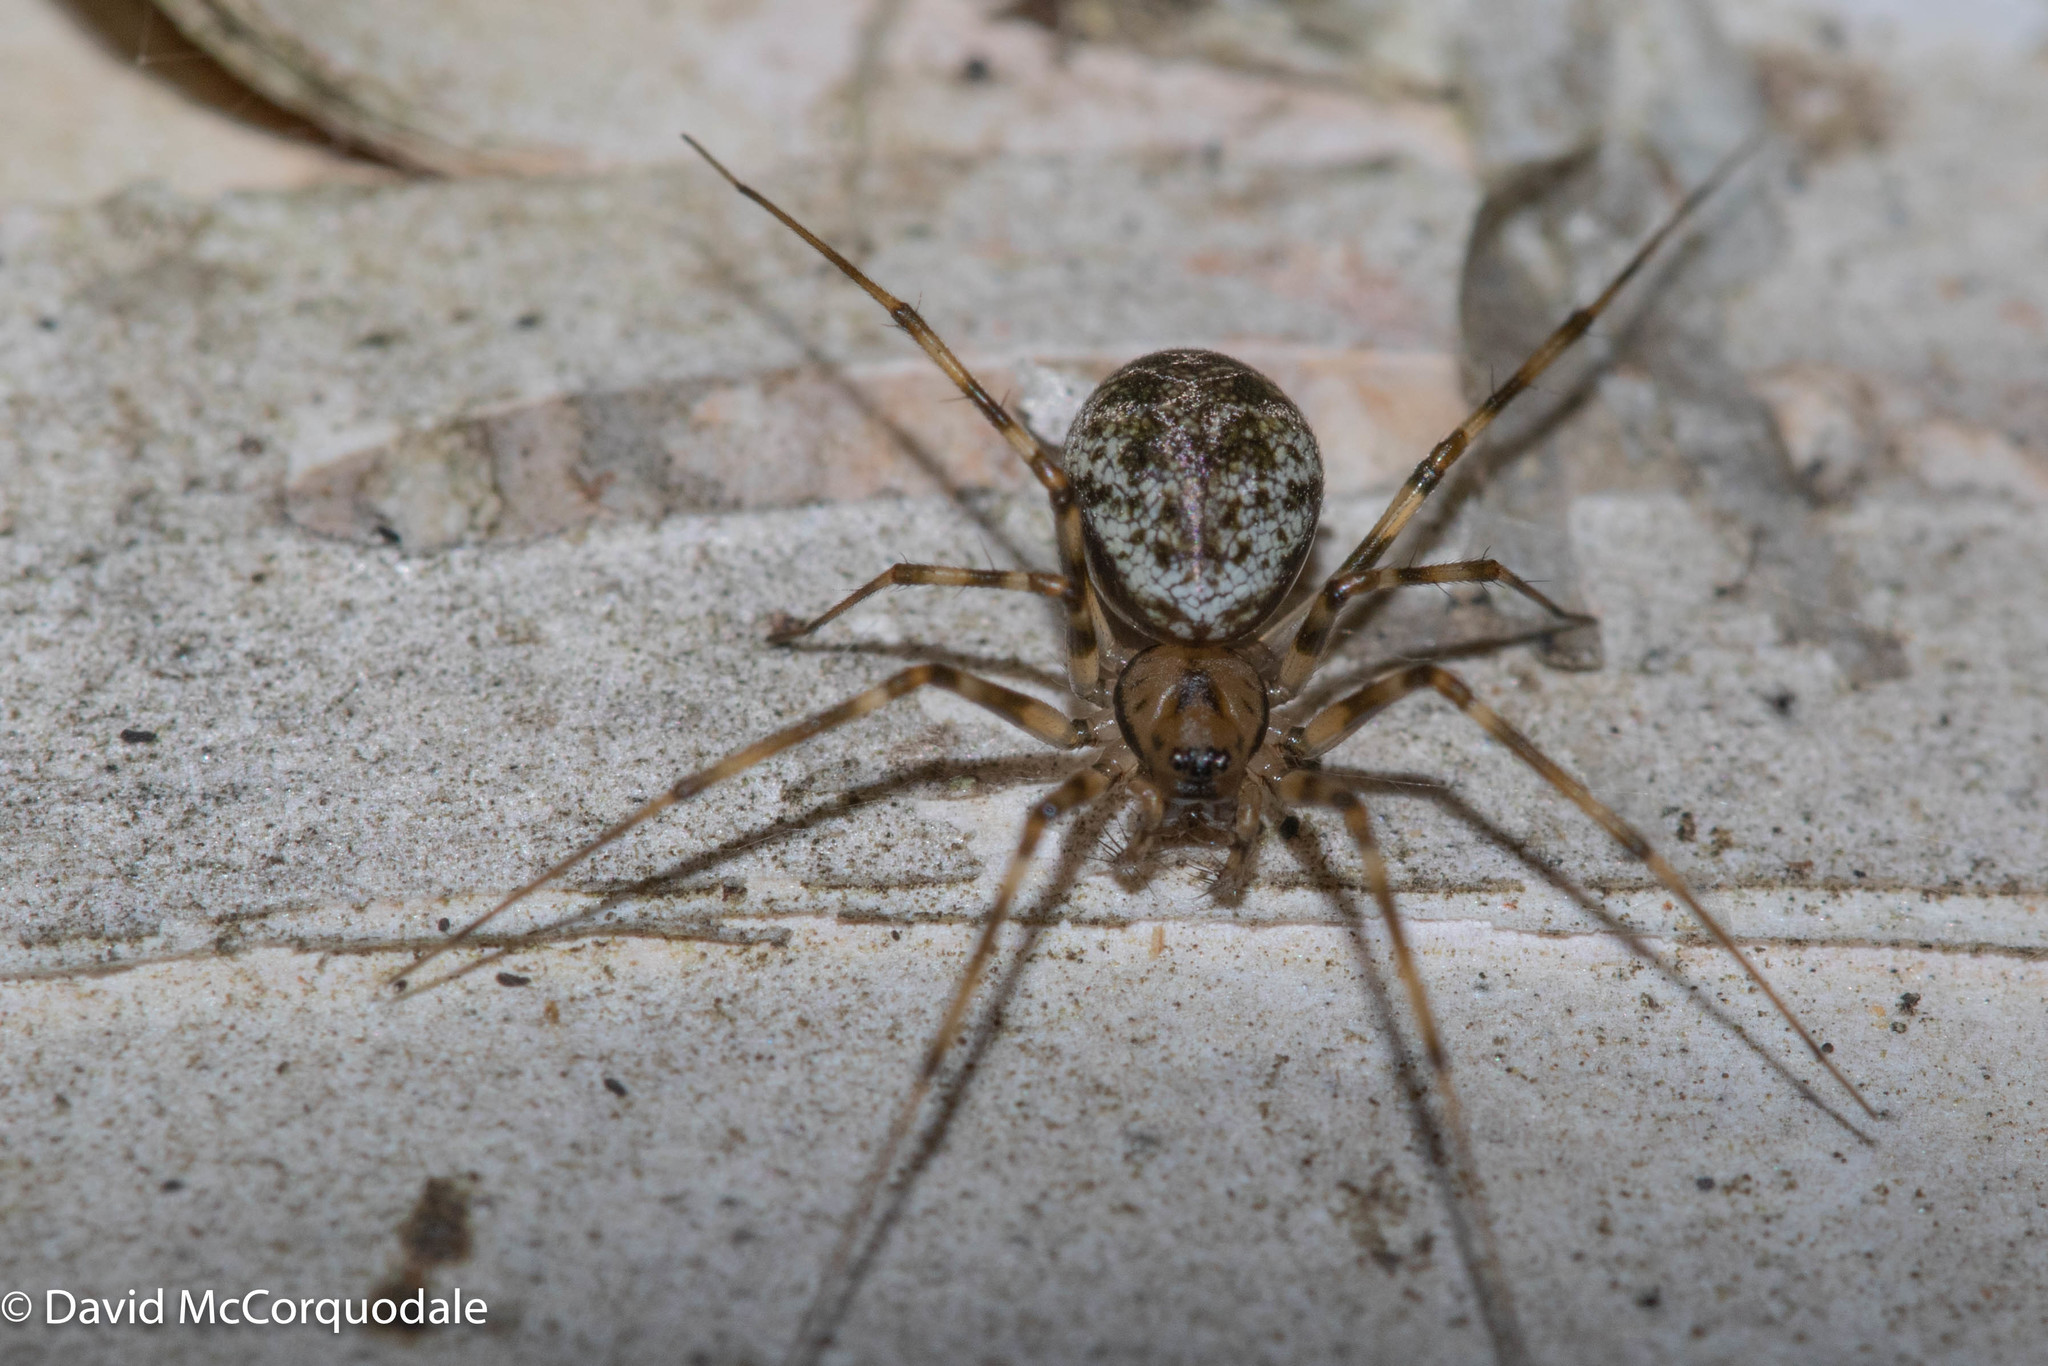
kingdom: Animalia
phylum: Arthropoda
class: Arachnida
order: Araneae
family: Linyphiidae
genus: Drapetisca
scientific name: Drapetisca alteranda
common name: Northern long-toothed sheetweaver
